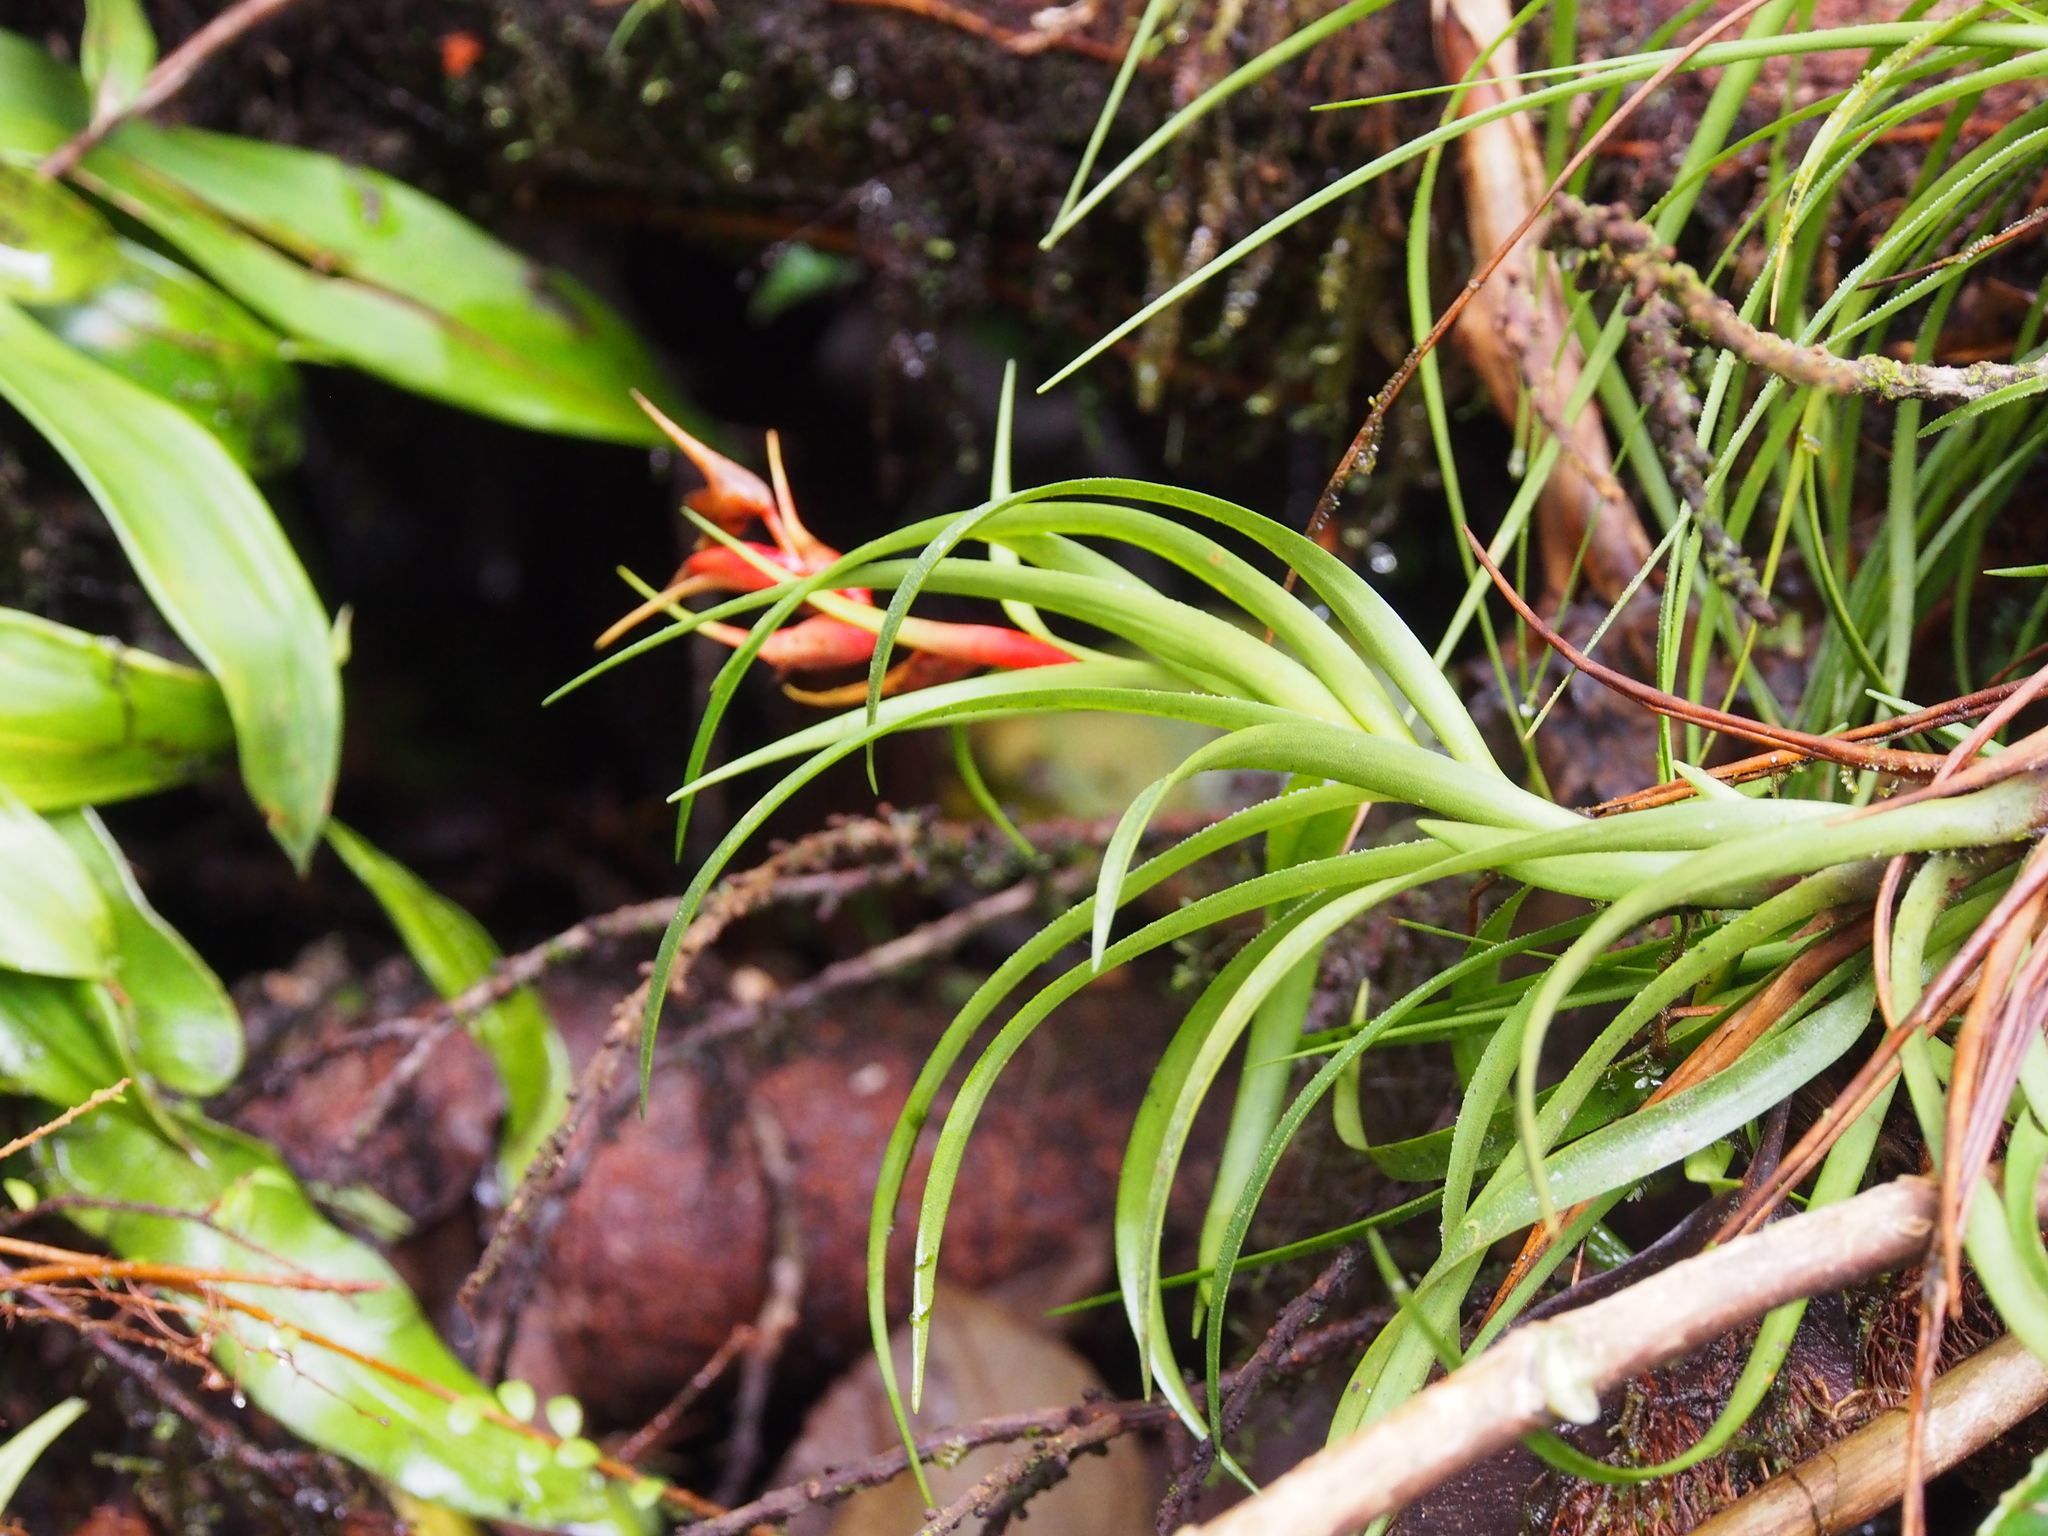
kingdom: Plantae
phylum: Tracheophyta
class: Liliopsida
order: Poales
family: Bromeliaceae
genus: Werauhia
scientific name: Werauhia insignis
